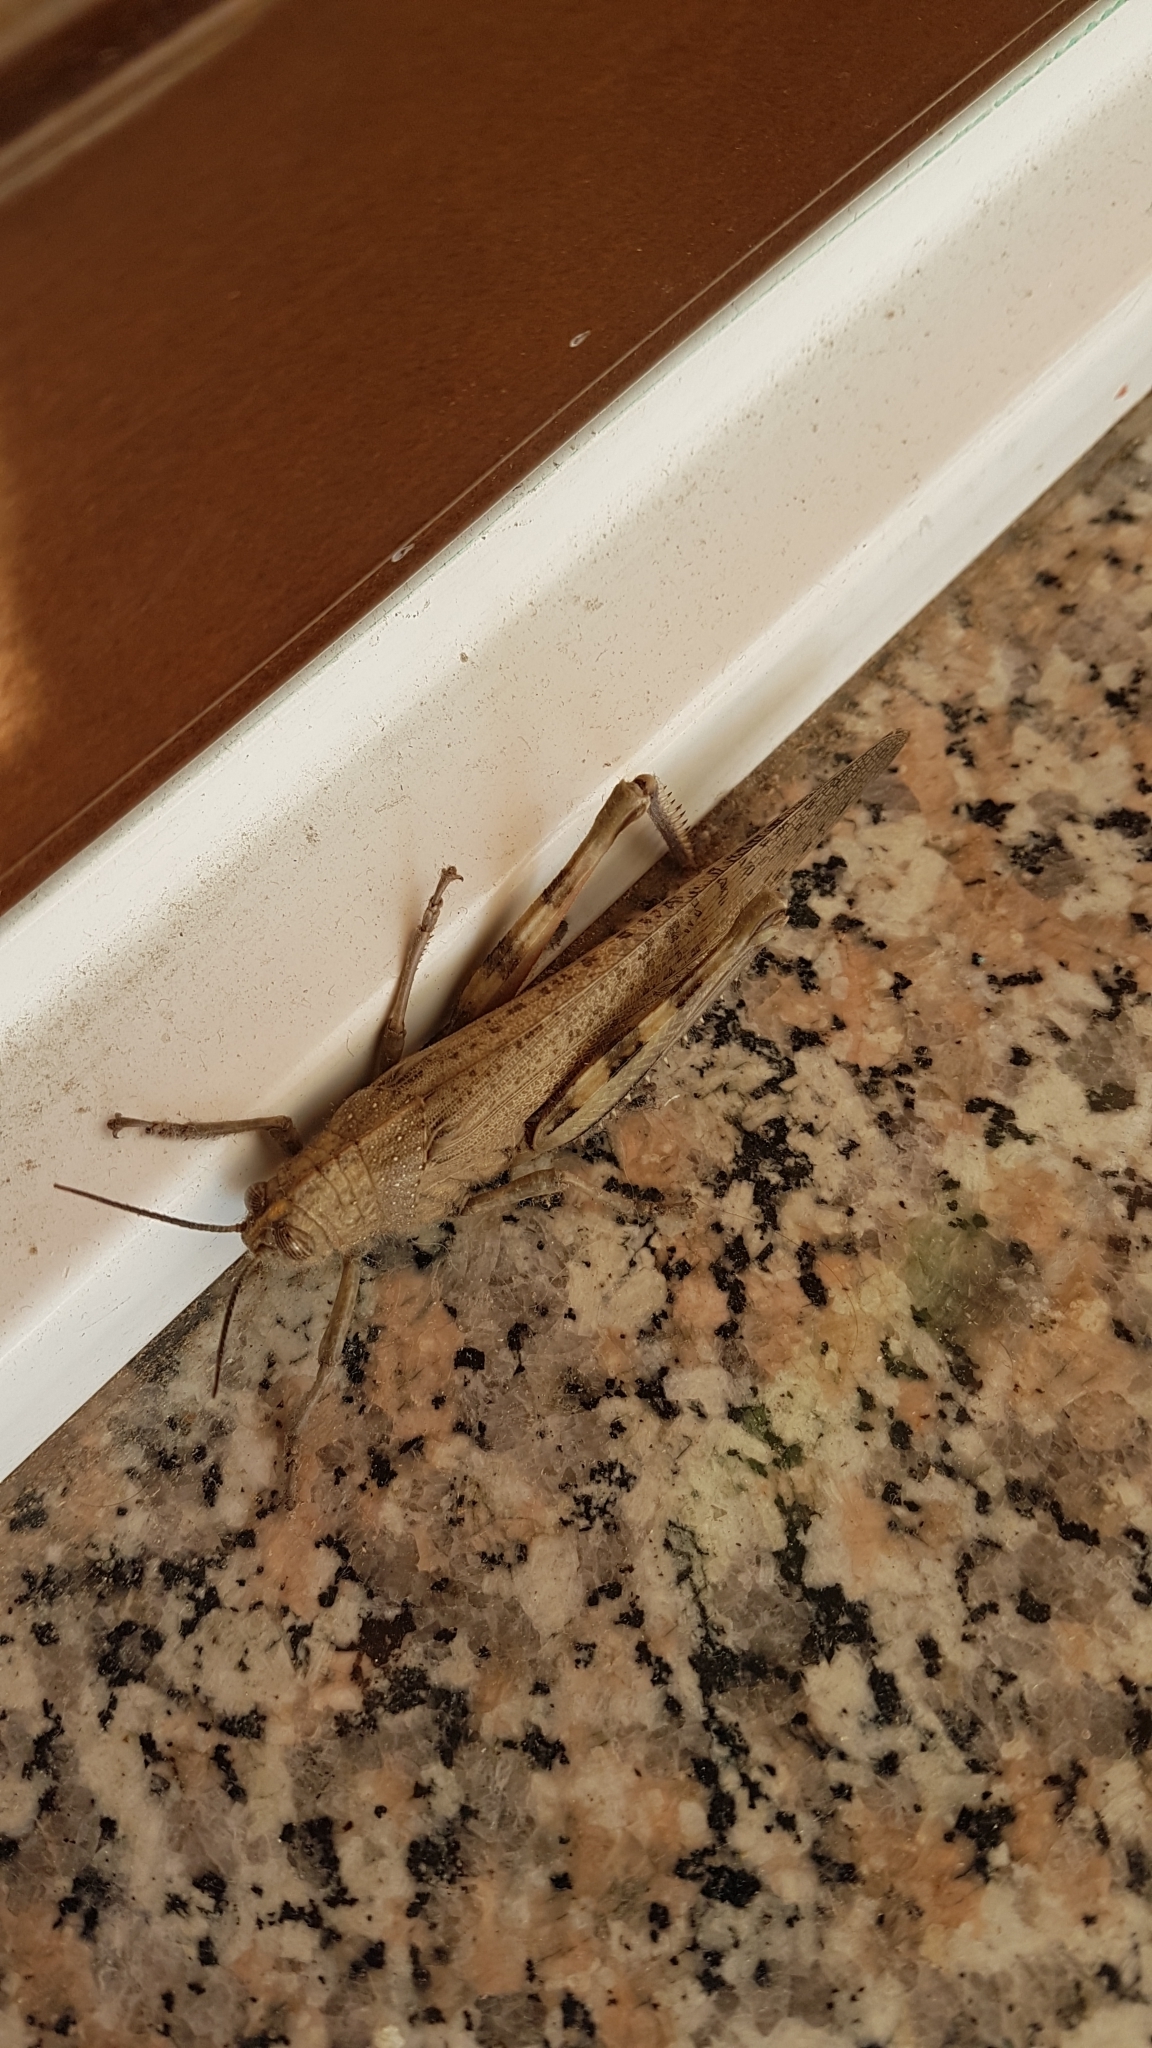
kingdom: Animalia
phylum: Arthropoda
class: Insecta
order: Orthoptera
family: Acrididae
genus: Anacridium
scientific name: Anacridium aegyptium
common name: Egyptian grasshopper
